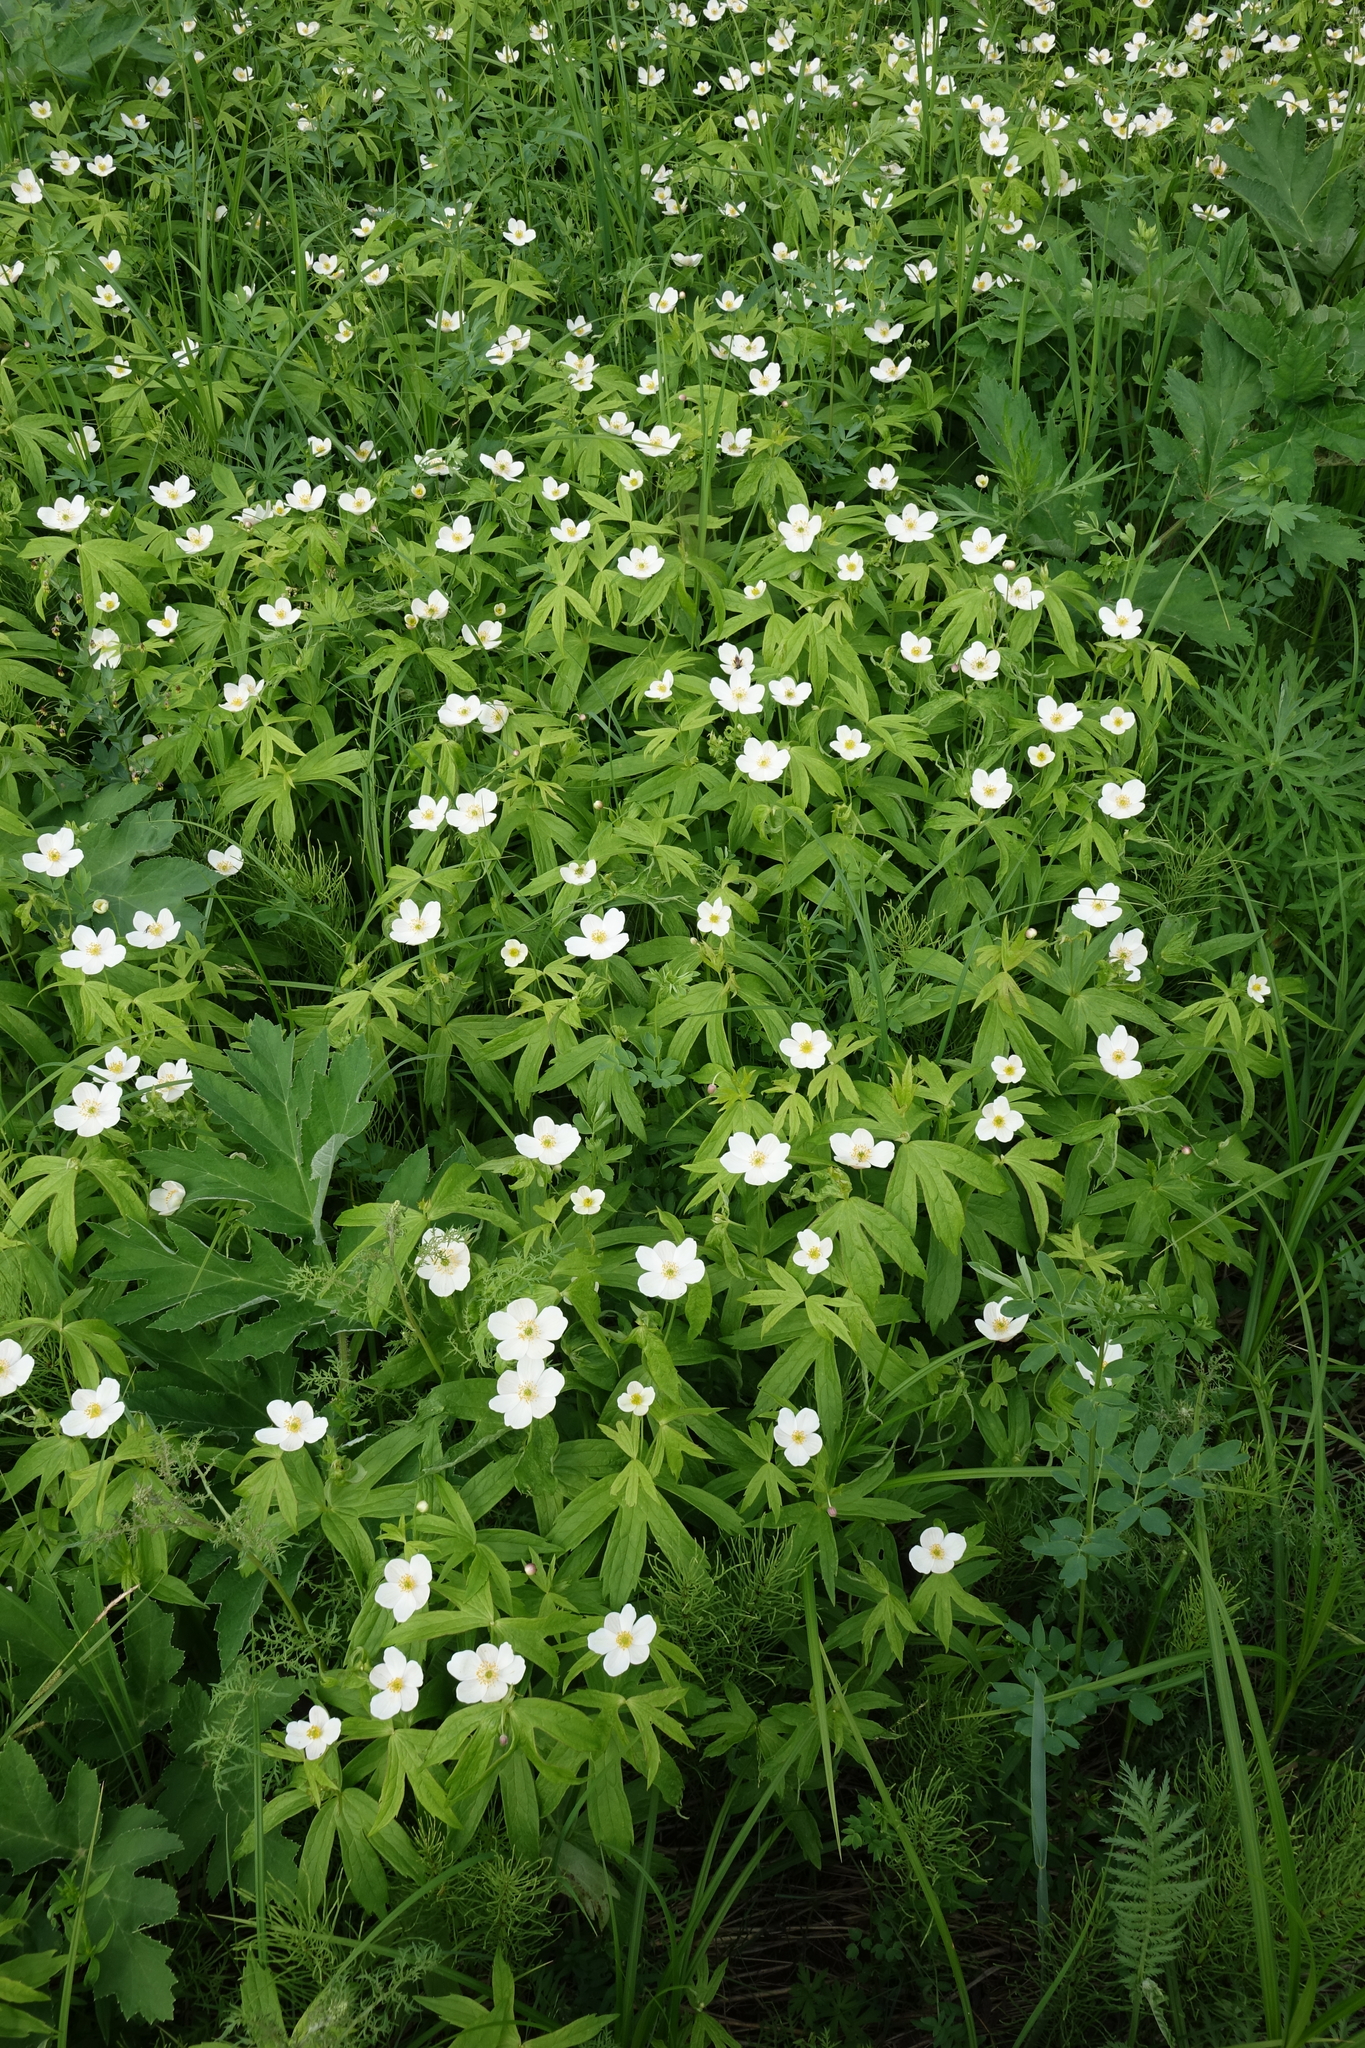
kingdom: Plantae
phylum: Tracheophyta
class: Magnoliopsida
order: Ranunculales
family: Ranunculaceae
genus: Anemonastrum
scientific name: Anemonastrum dichotomum
